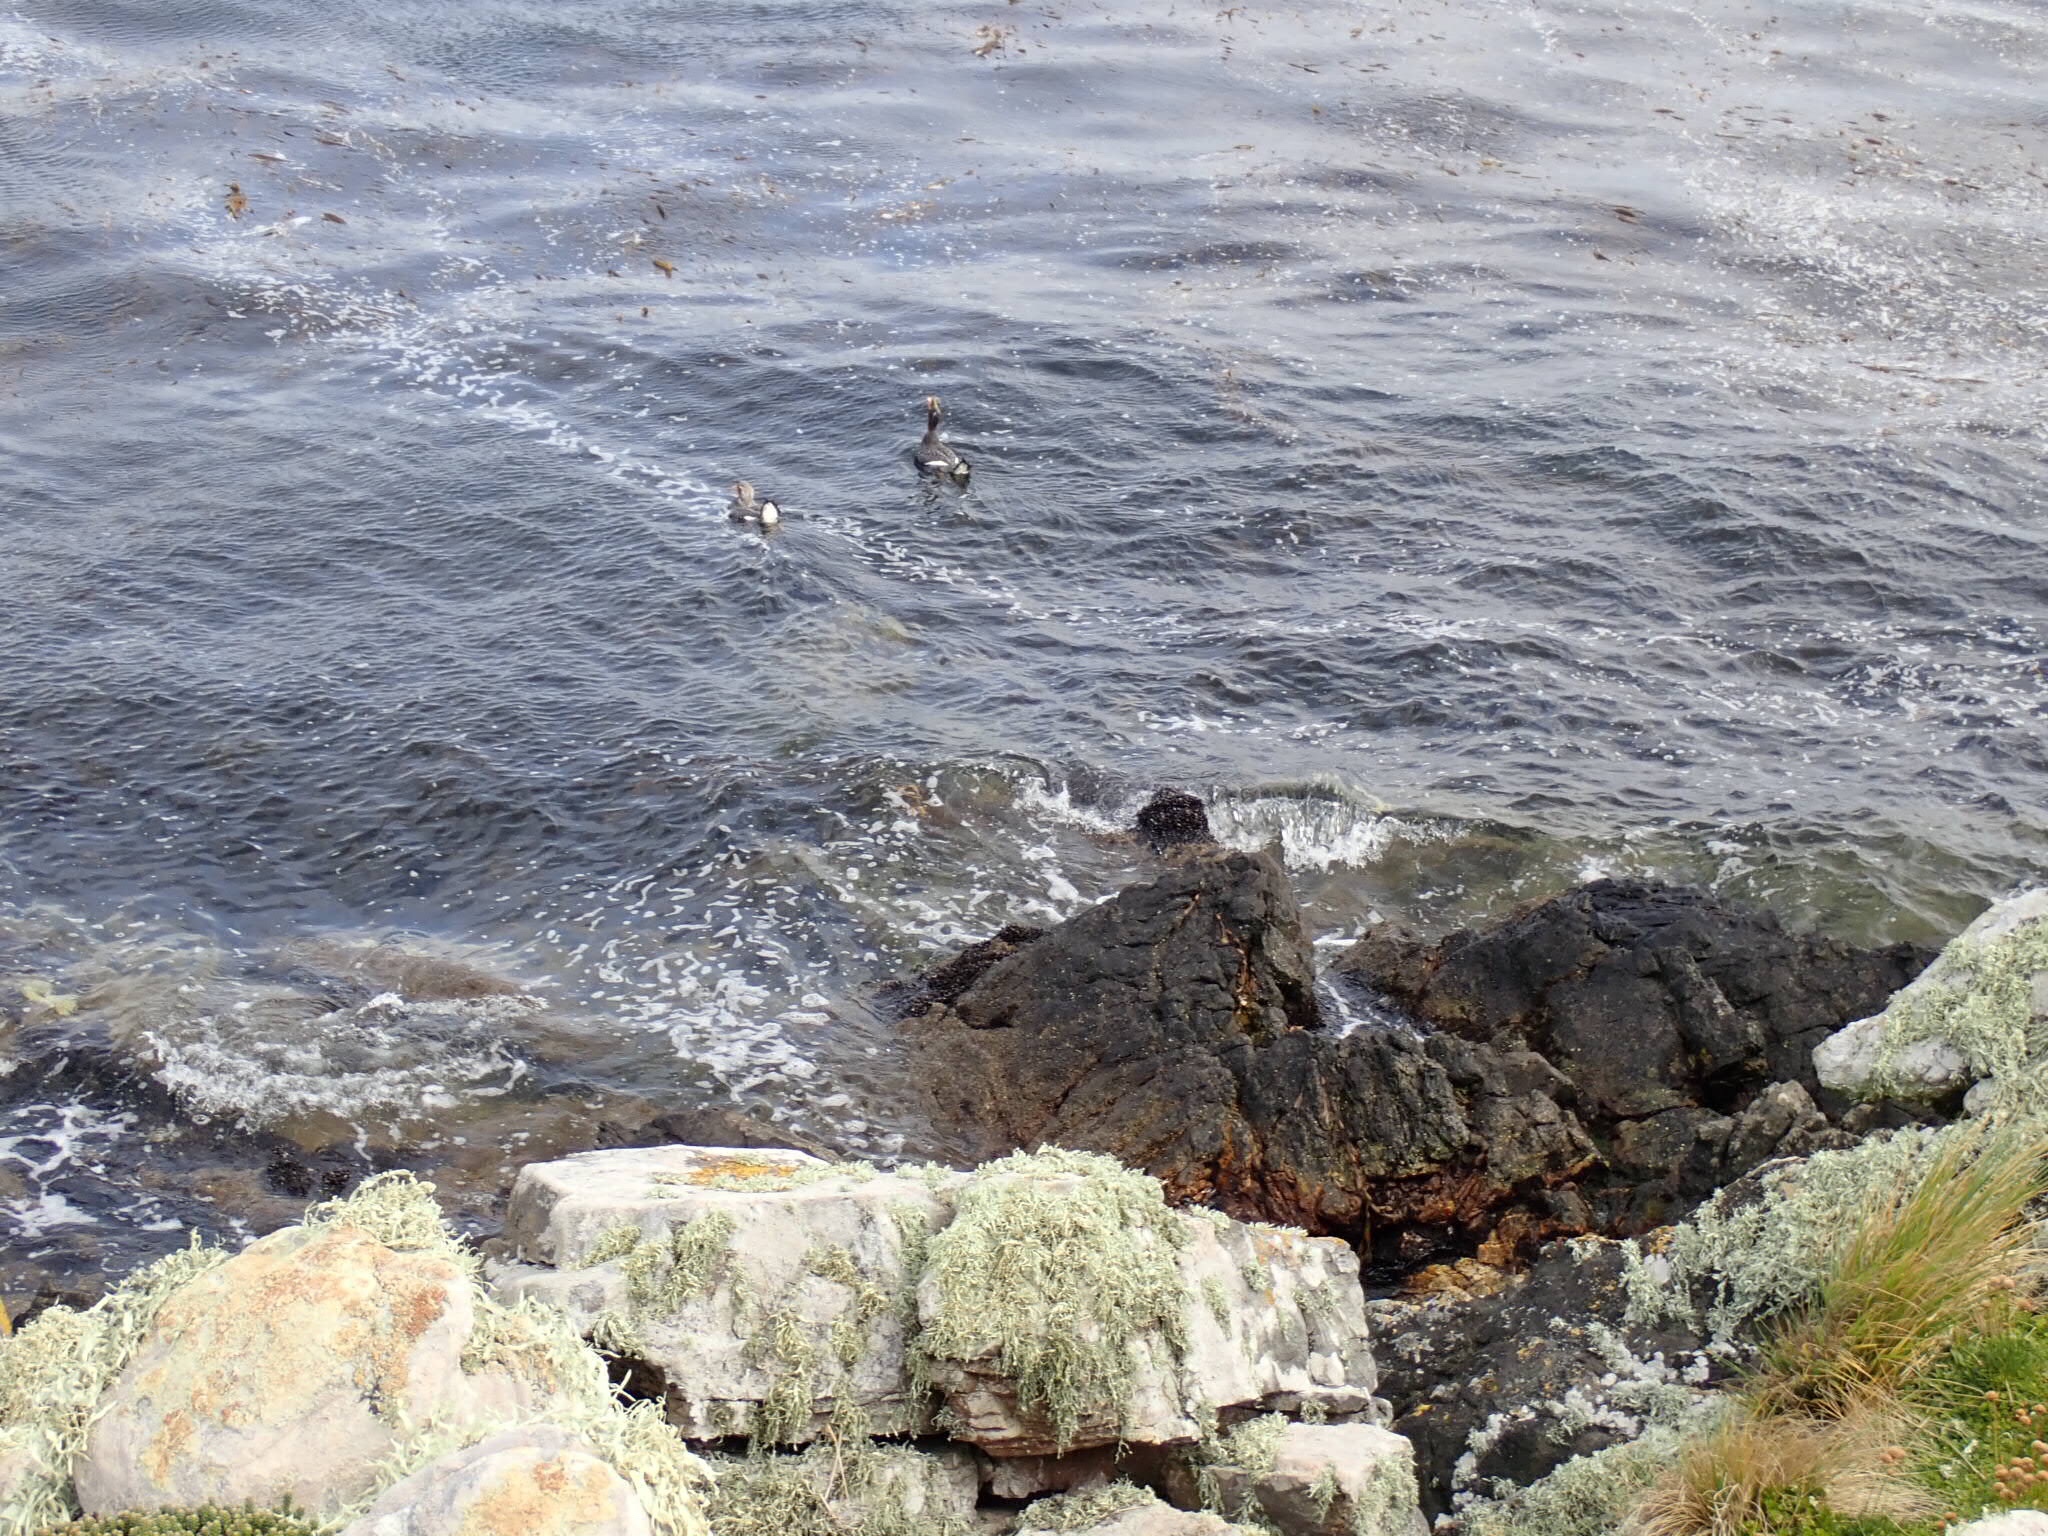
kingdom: Animalia
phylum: Chordata
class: Aves
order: Anseriformes
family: Anatidae
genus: Tachyeres
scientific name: Tachyeres brachypterus
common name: Falkland steamer duck
